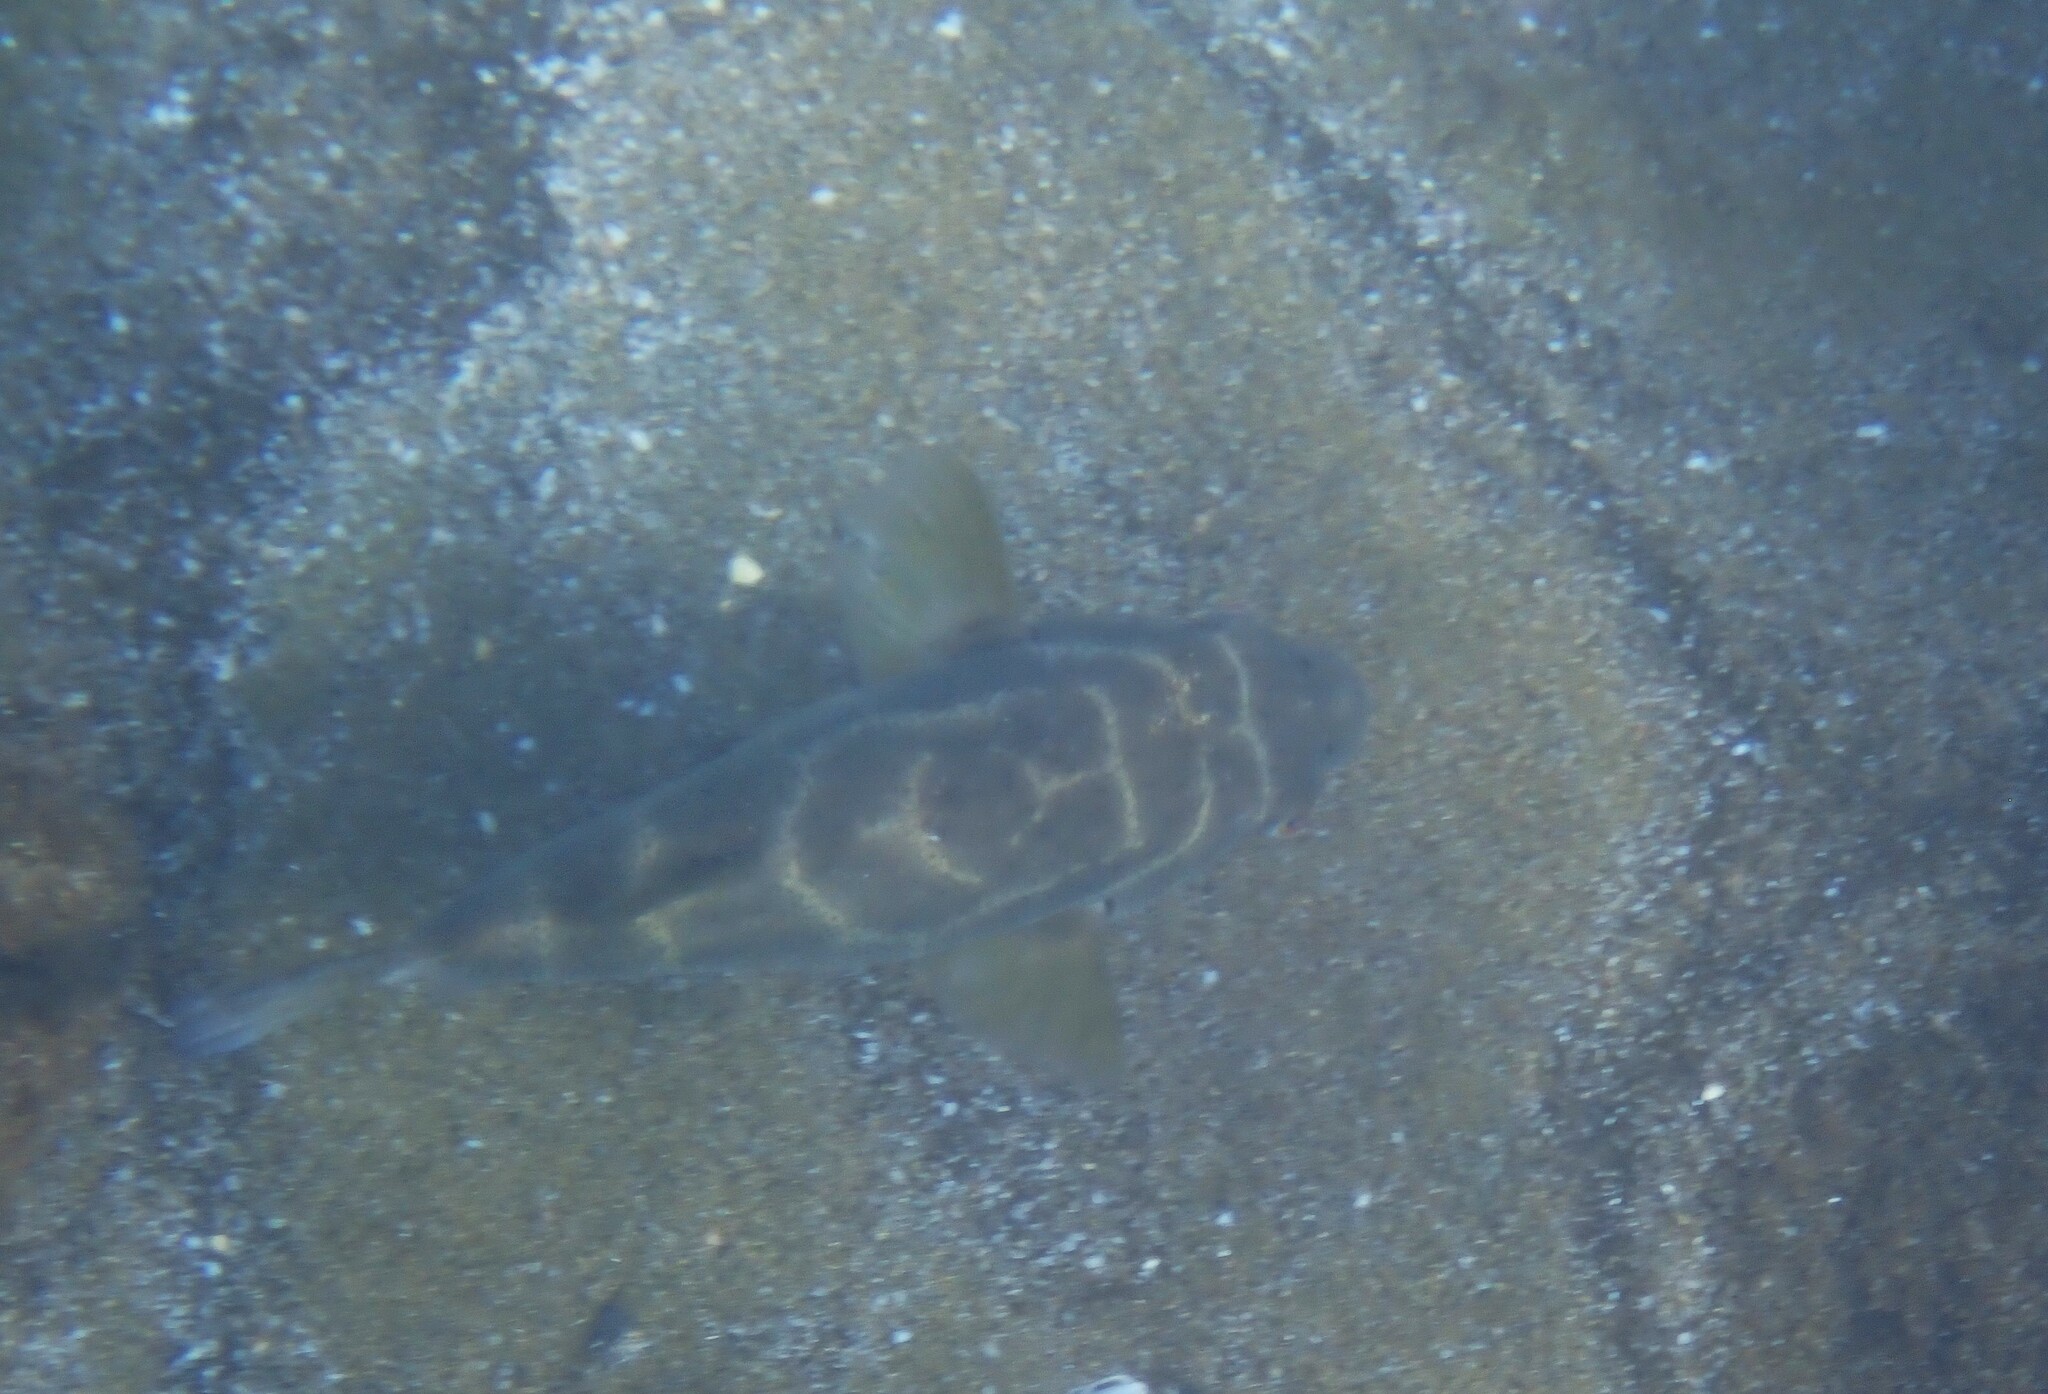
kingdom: Animalia
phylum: Chordata
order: Tetraodontiformes
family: Tetraodontidae
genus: Sphoeroides
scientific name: Sphoeroides annulatus
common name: Bullseye puffer
